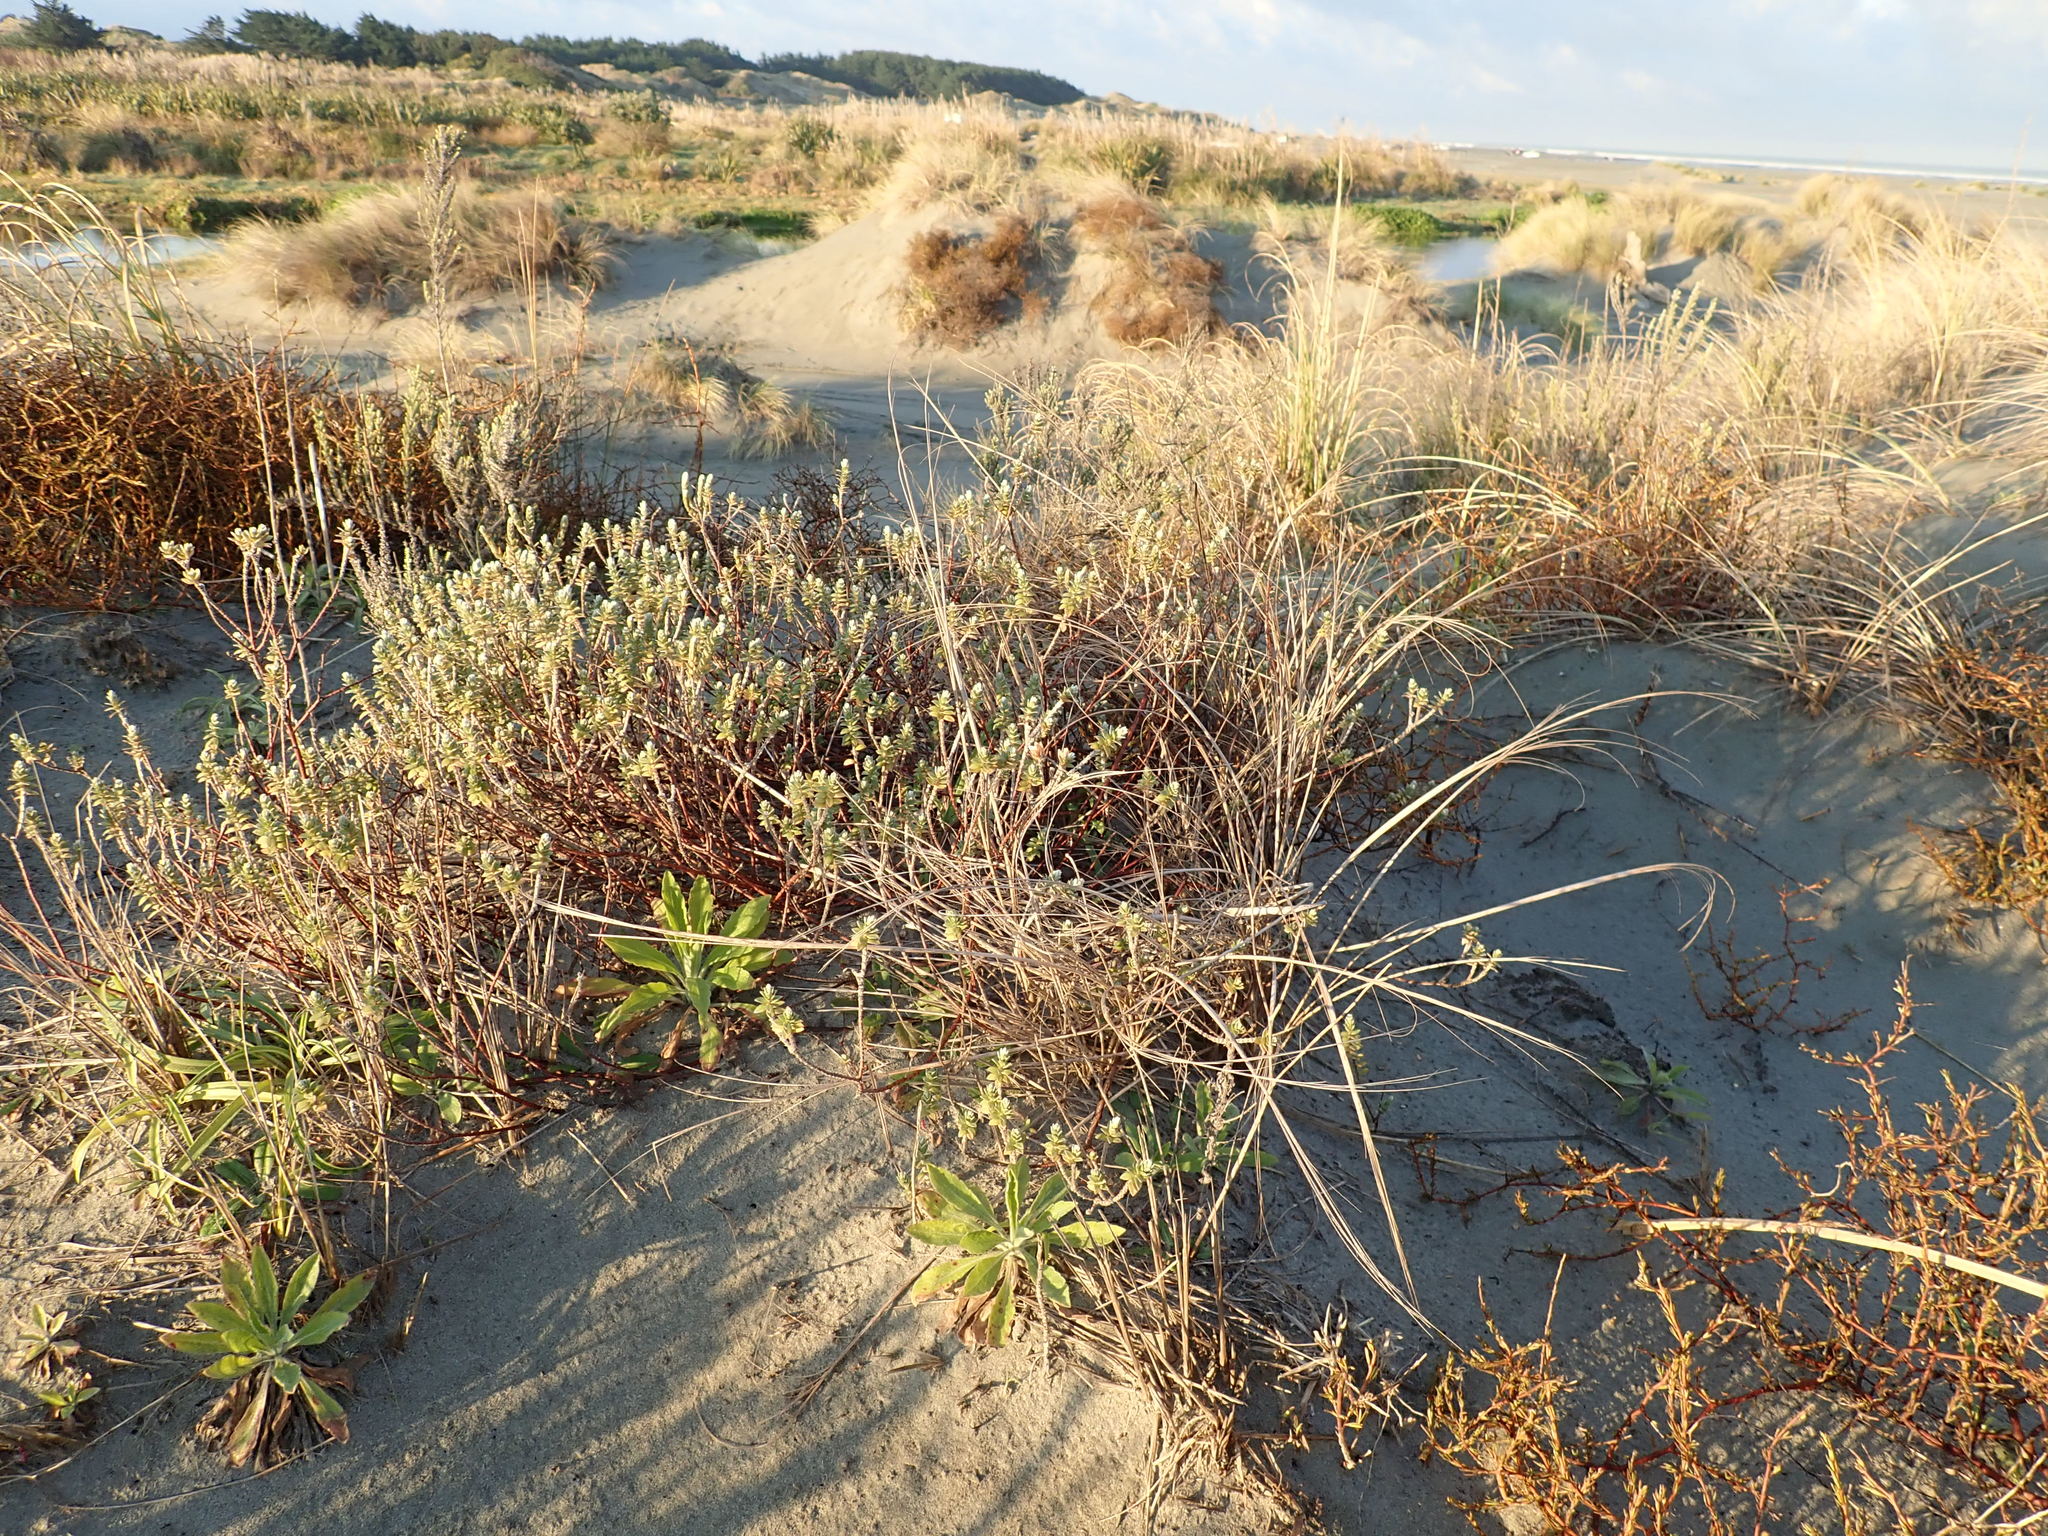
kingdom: Plantae
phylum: Tracheophyta
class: Magnoliopsida
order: Malvales
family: Thymelaeaceae
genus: Pimelea
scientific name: Pimelea villosa
